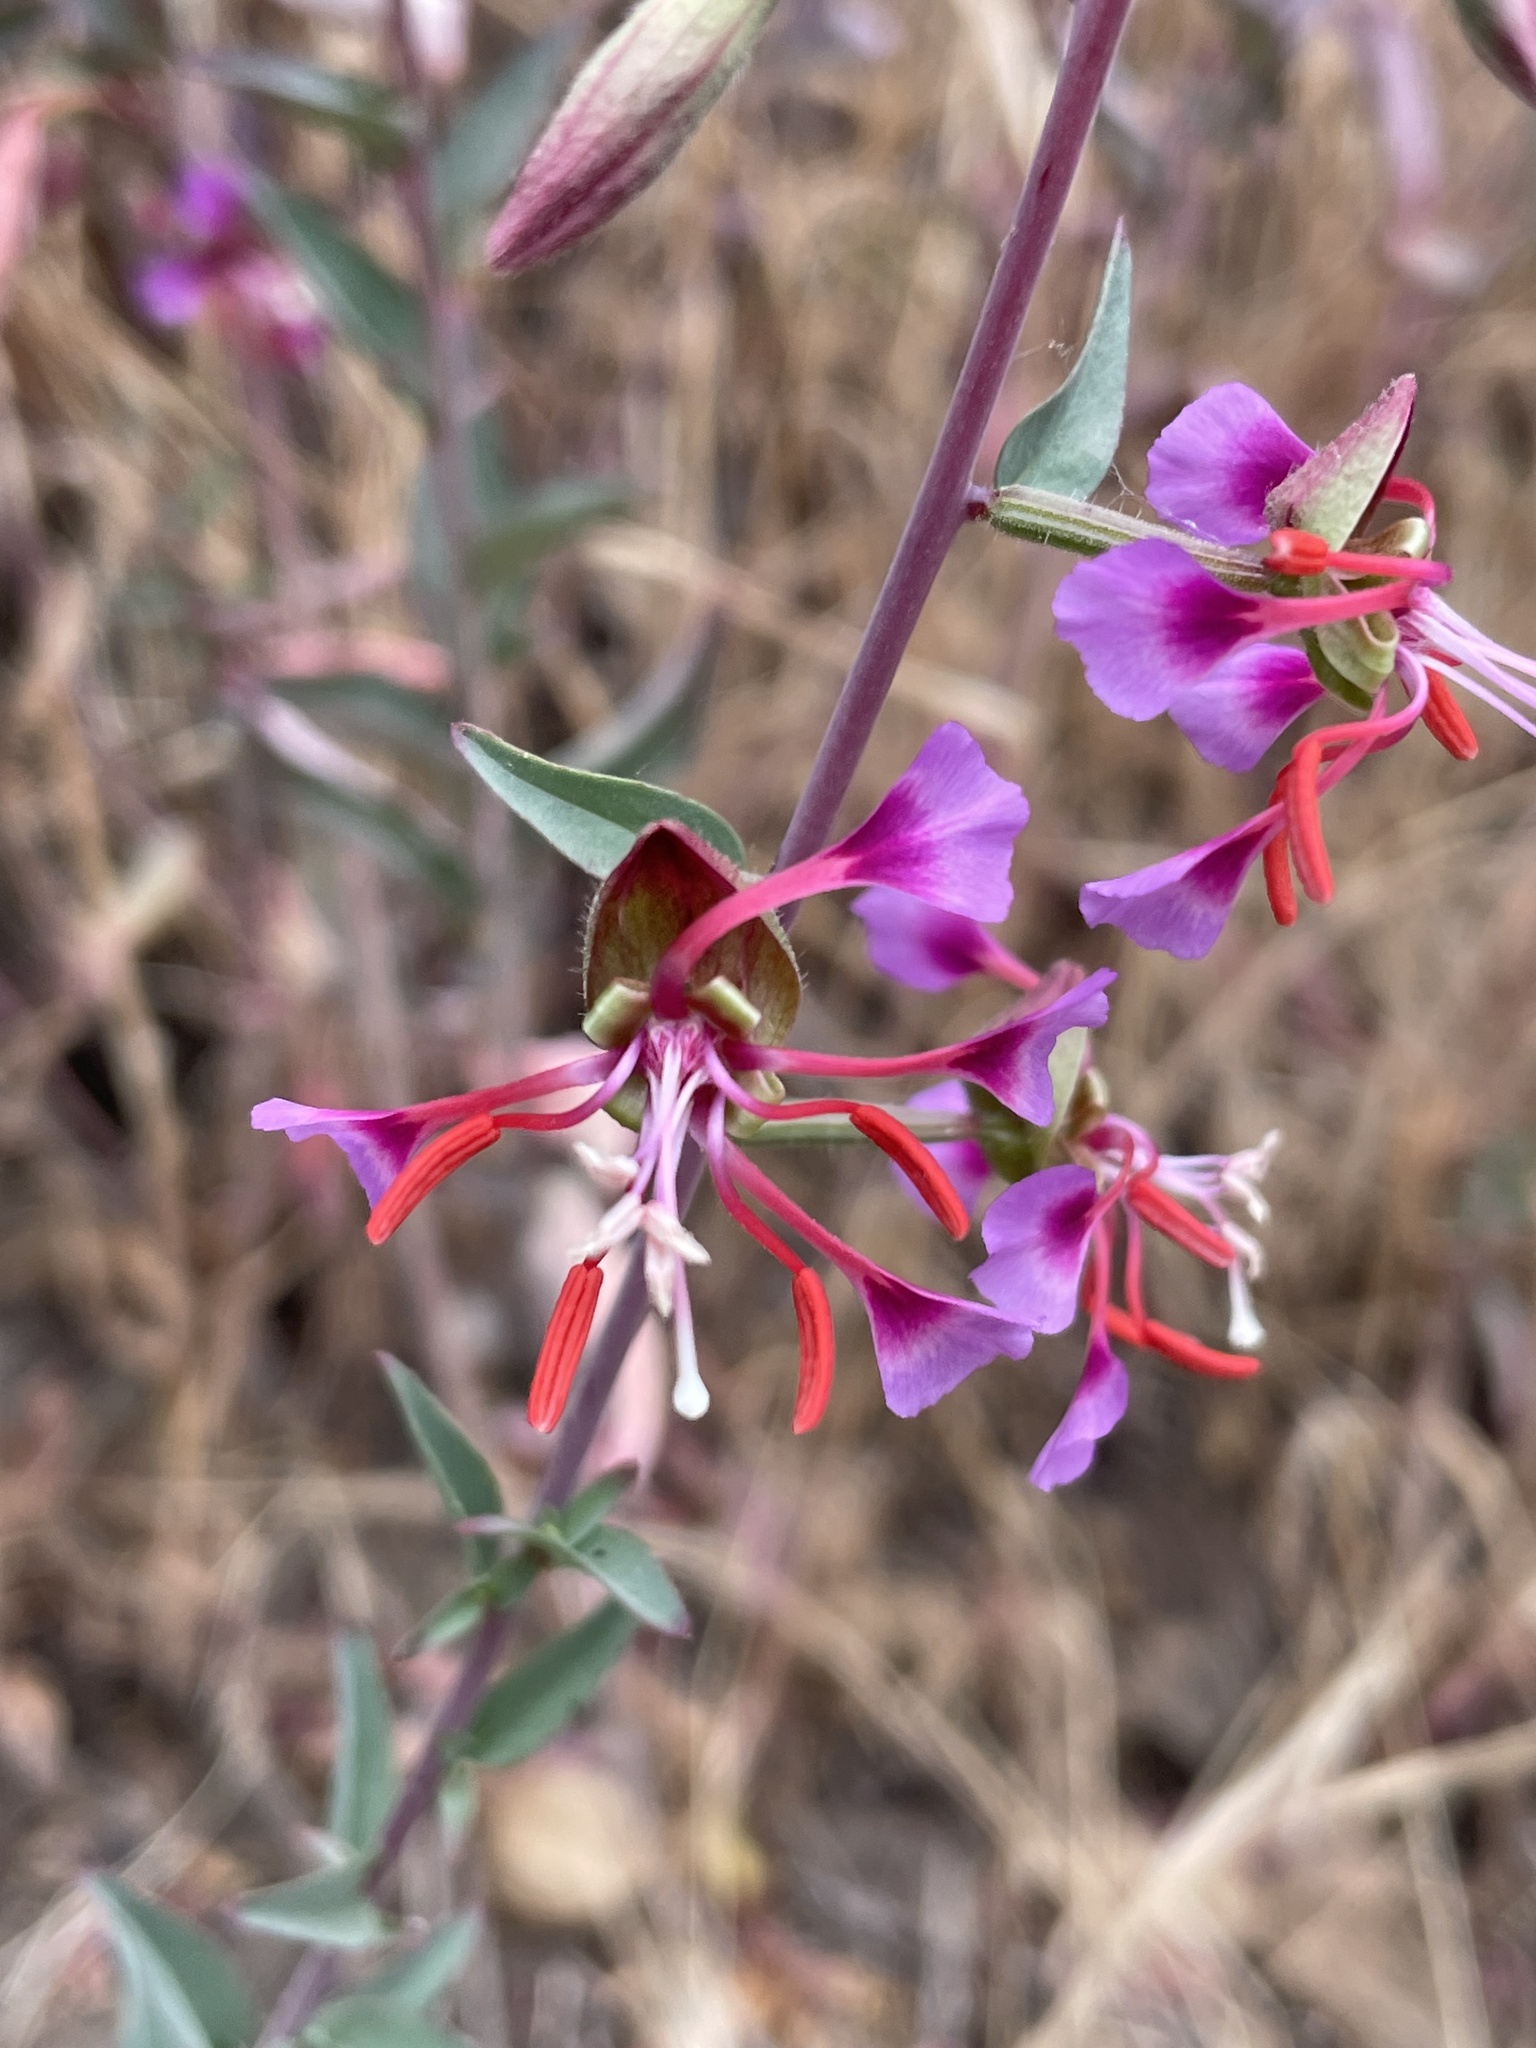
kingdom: Plantae
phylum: Tracheophyta
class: Magnoliopsida
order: Myrtales
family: Onagraceae
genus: Clarkia
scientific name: Clarkia unguiculata
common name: Clarkia
